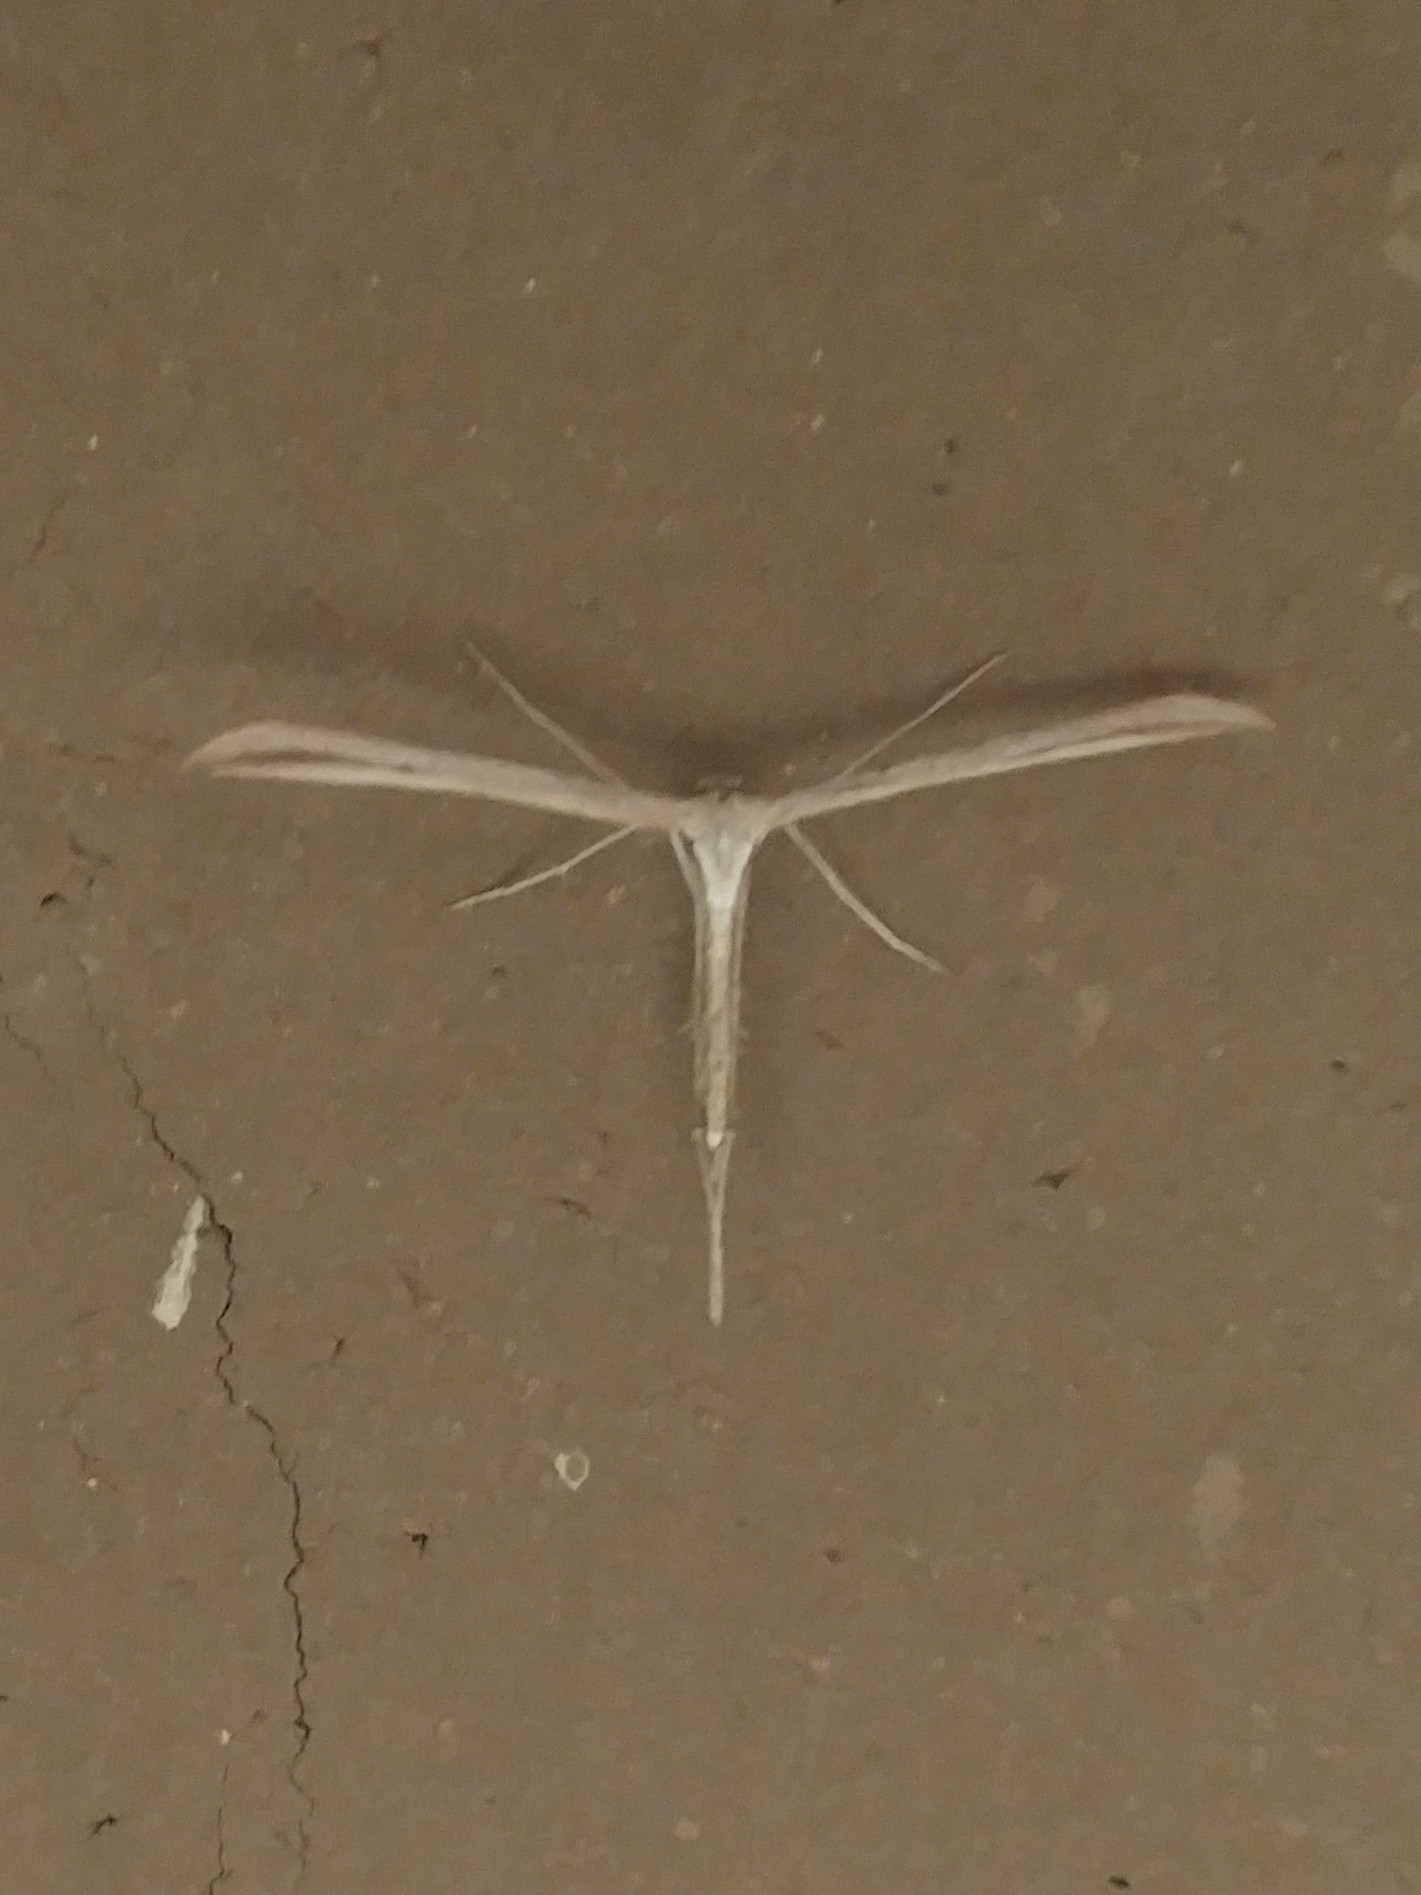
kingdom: Animalia
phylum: Arthropoda
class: Insecta
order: Lepidoptera
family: Pterophoridae
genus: Emmelina
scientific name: Emmelina monodactyla
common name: Common plume
